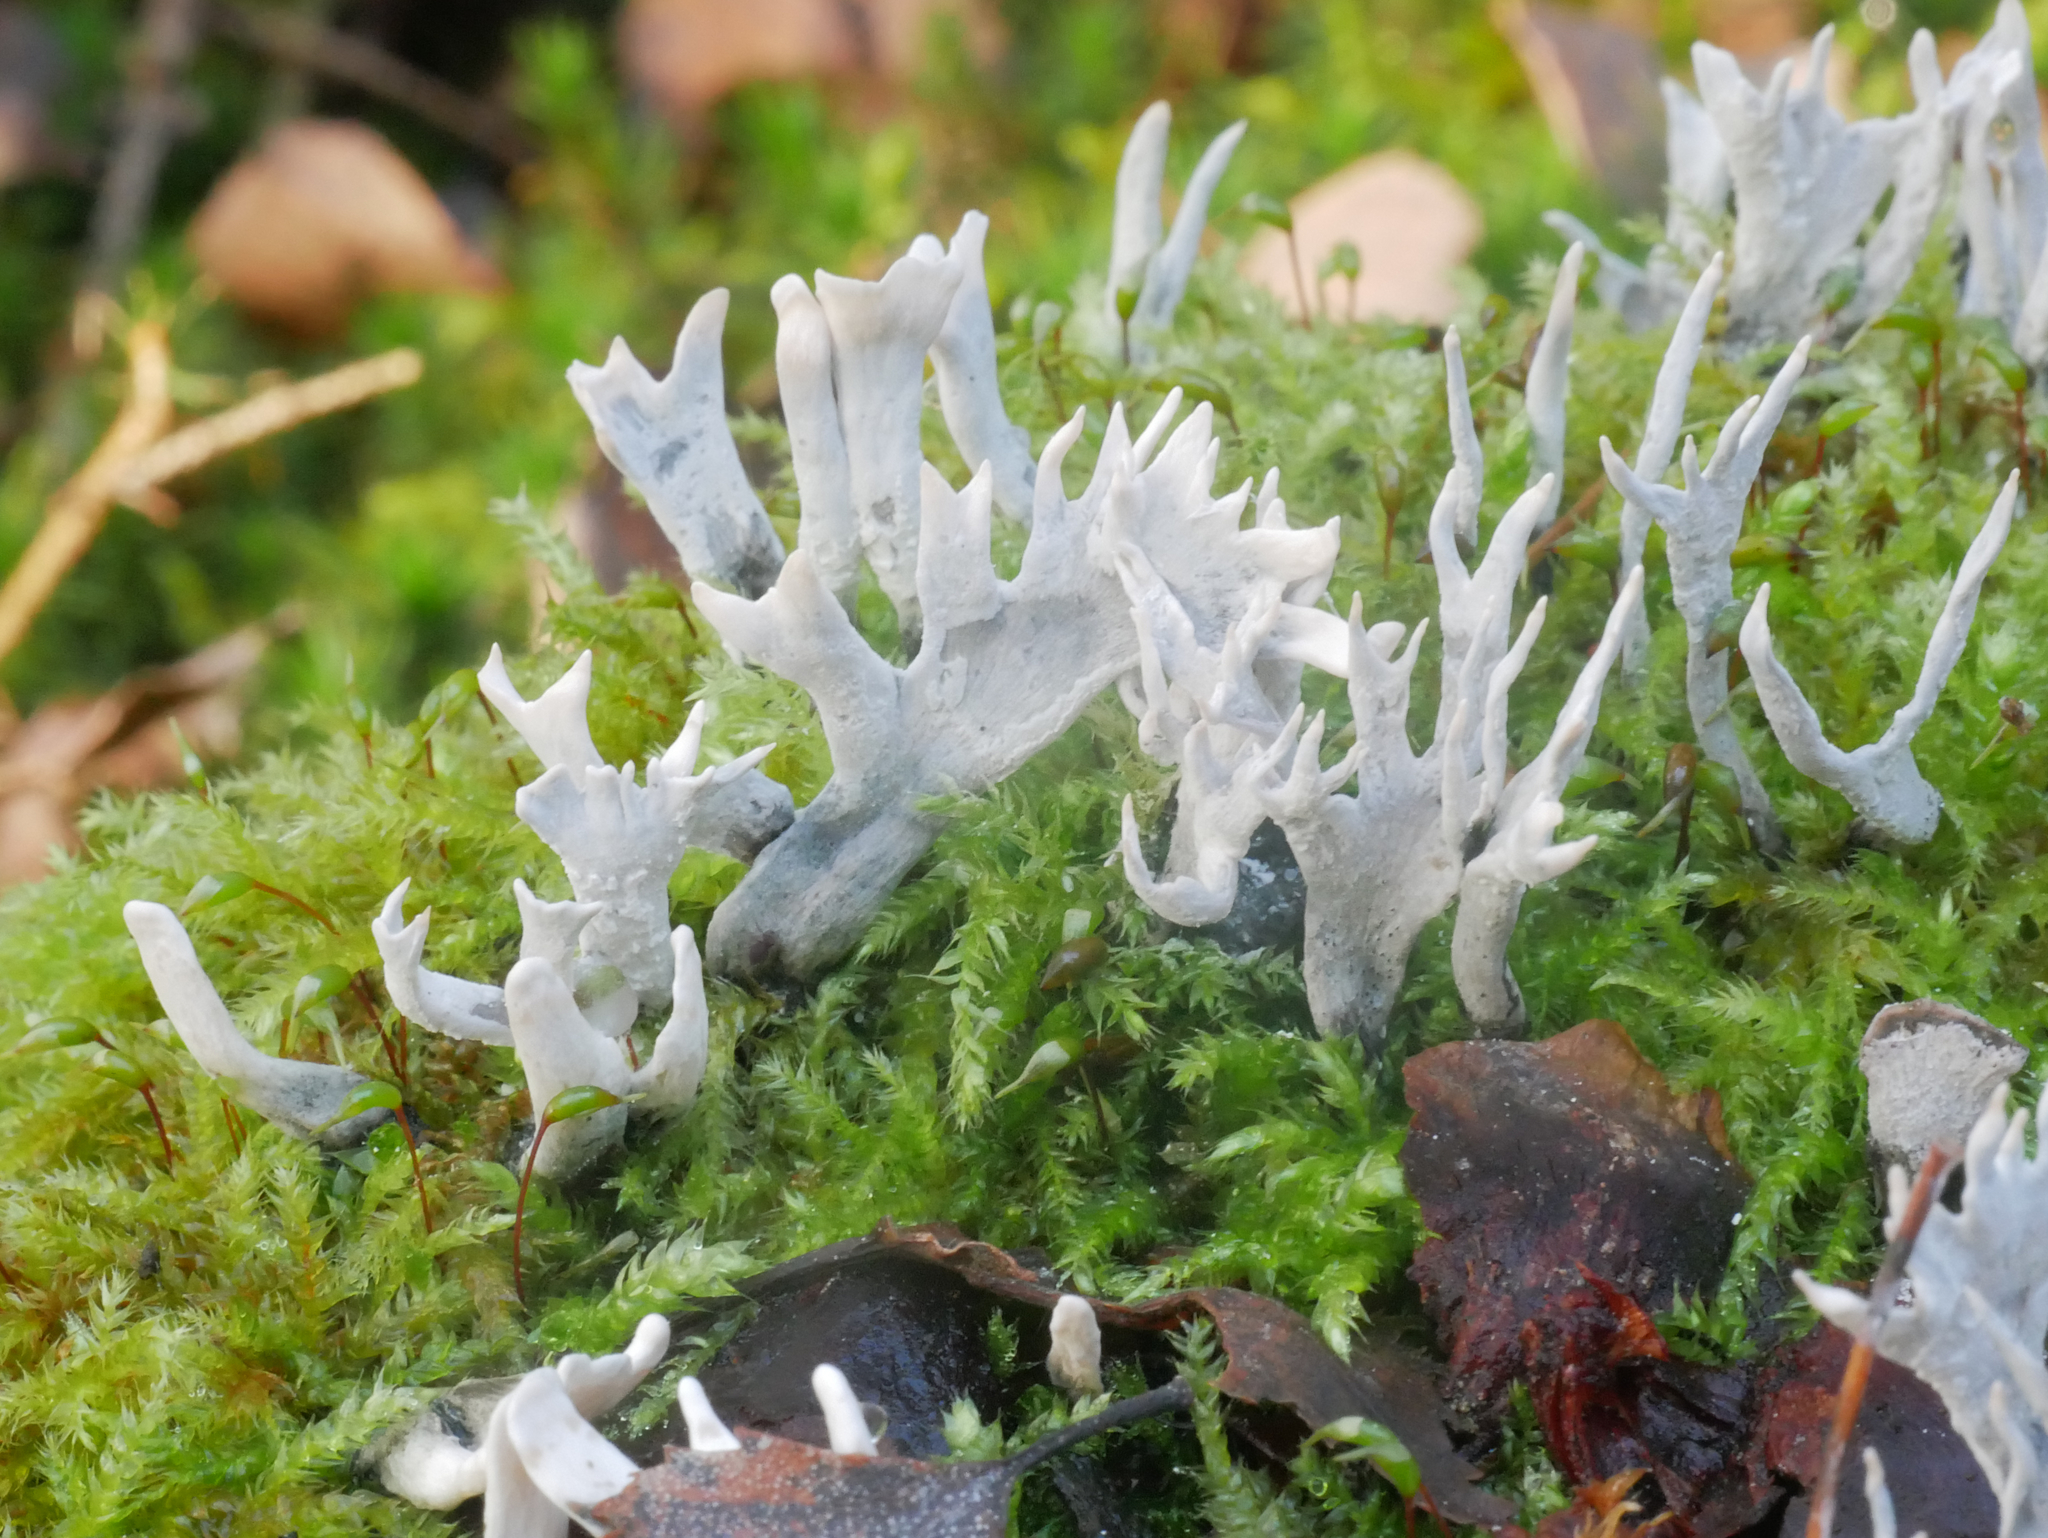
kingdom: Fungi
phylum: Ascomycota
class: Sordariomycetes
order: Xylariales
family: Xylariaceae
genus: Xylaria
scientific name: Xylaria hypoxylon
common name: Candle-snuff fungus
